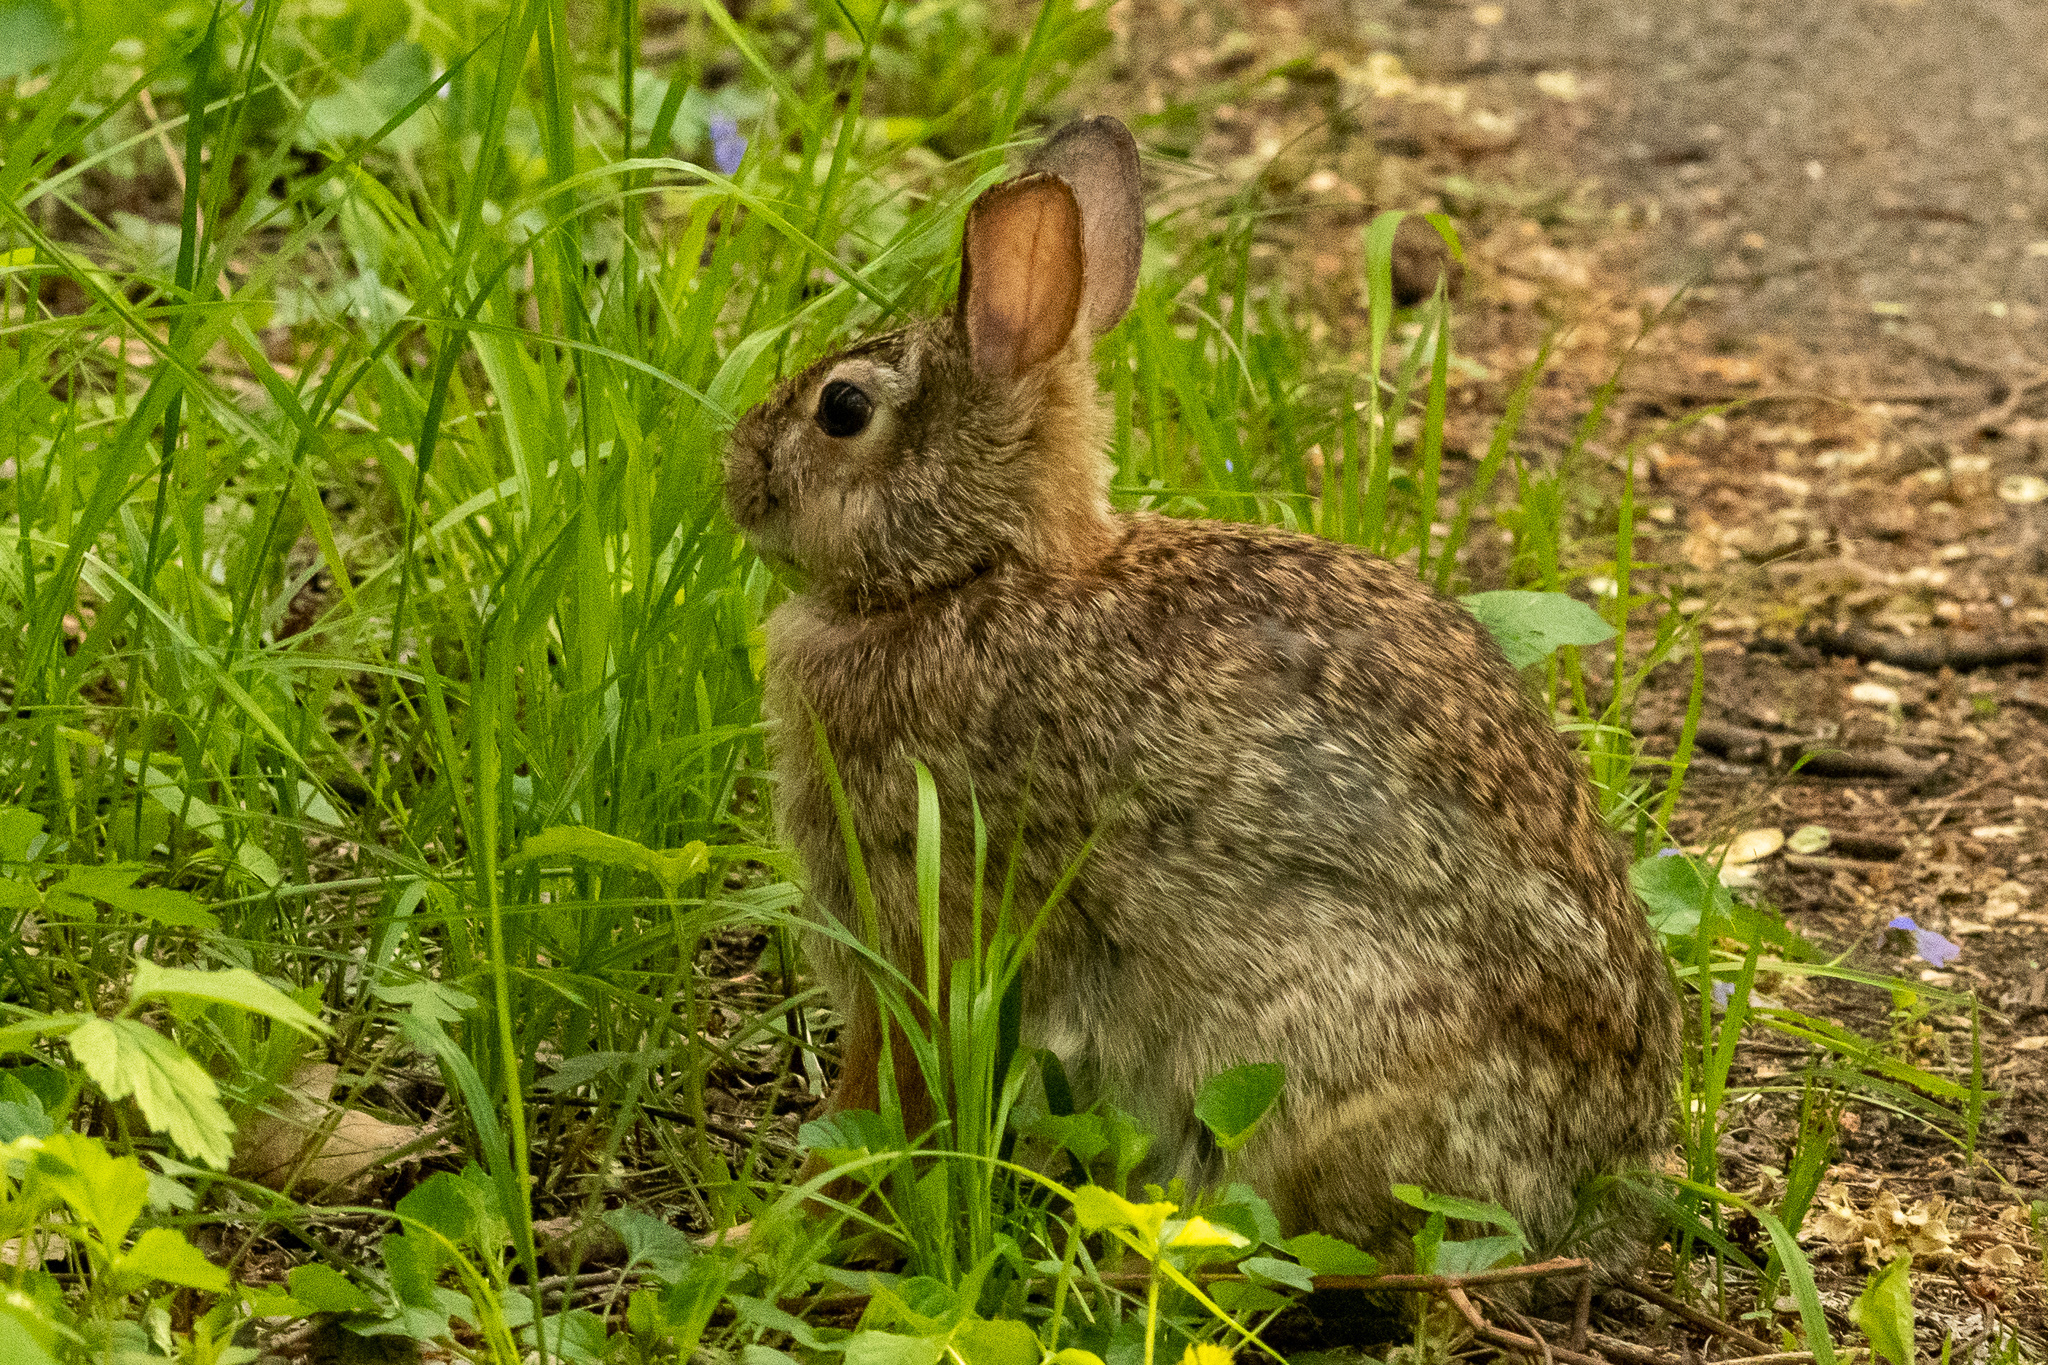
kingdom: Animalia
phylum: Chordata
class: Mammalia
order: Lagomorpha
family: Leporidae
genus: Sylvilagus
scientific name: Sylvilagus floridanus
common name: Eastern cottontail
